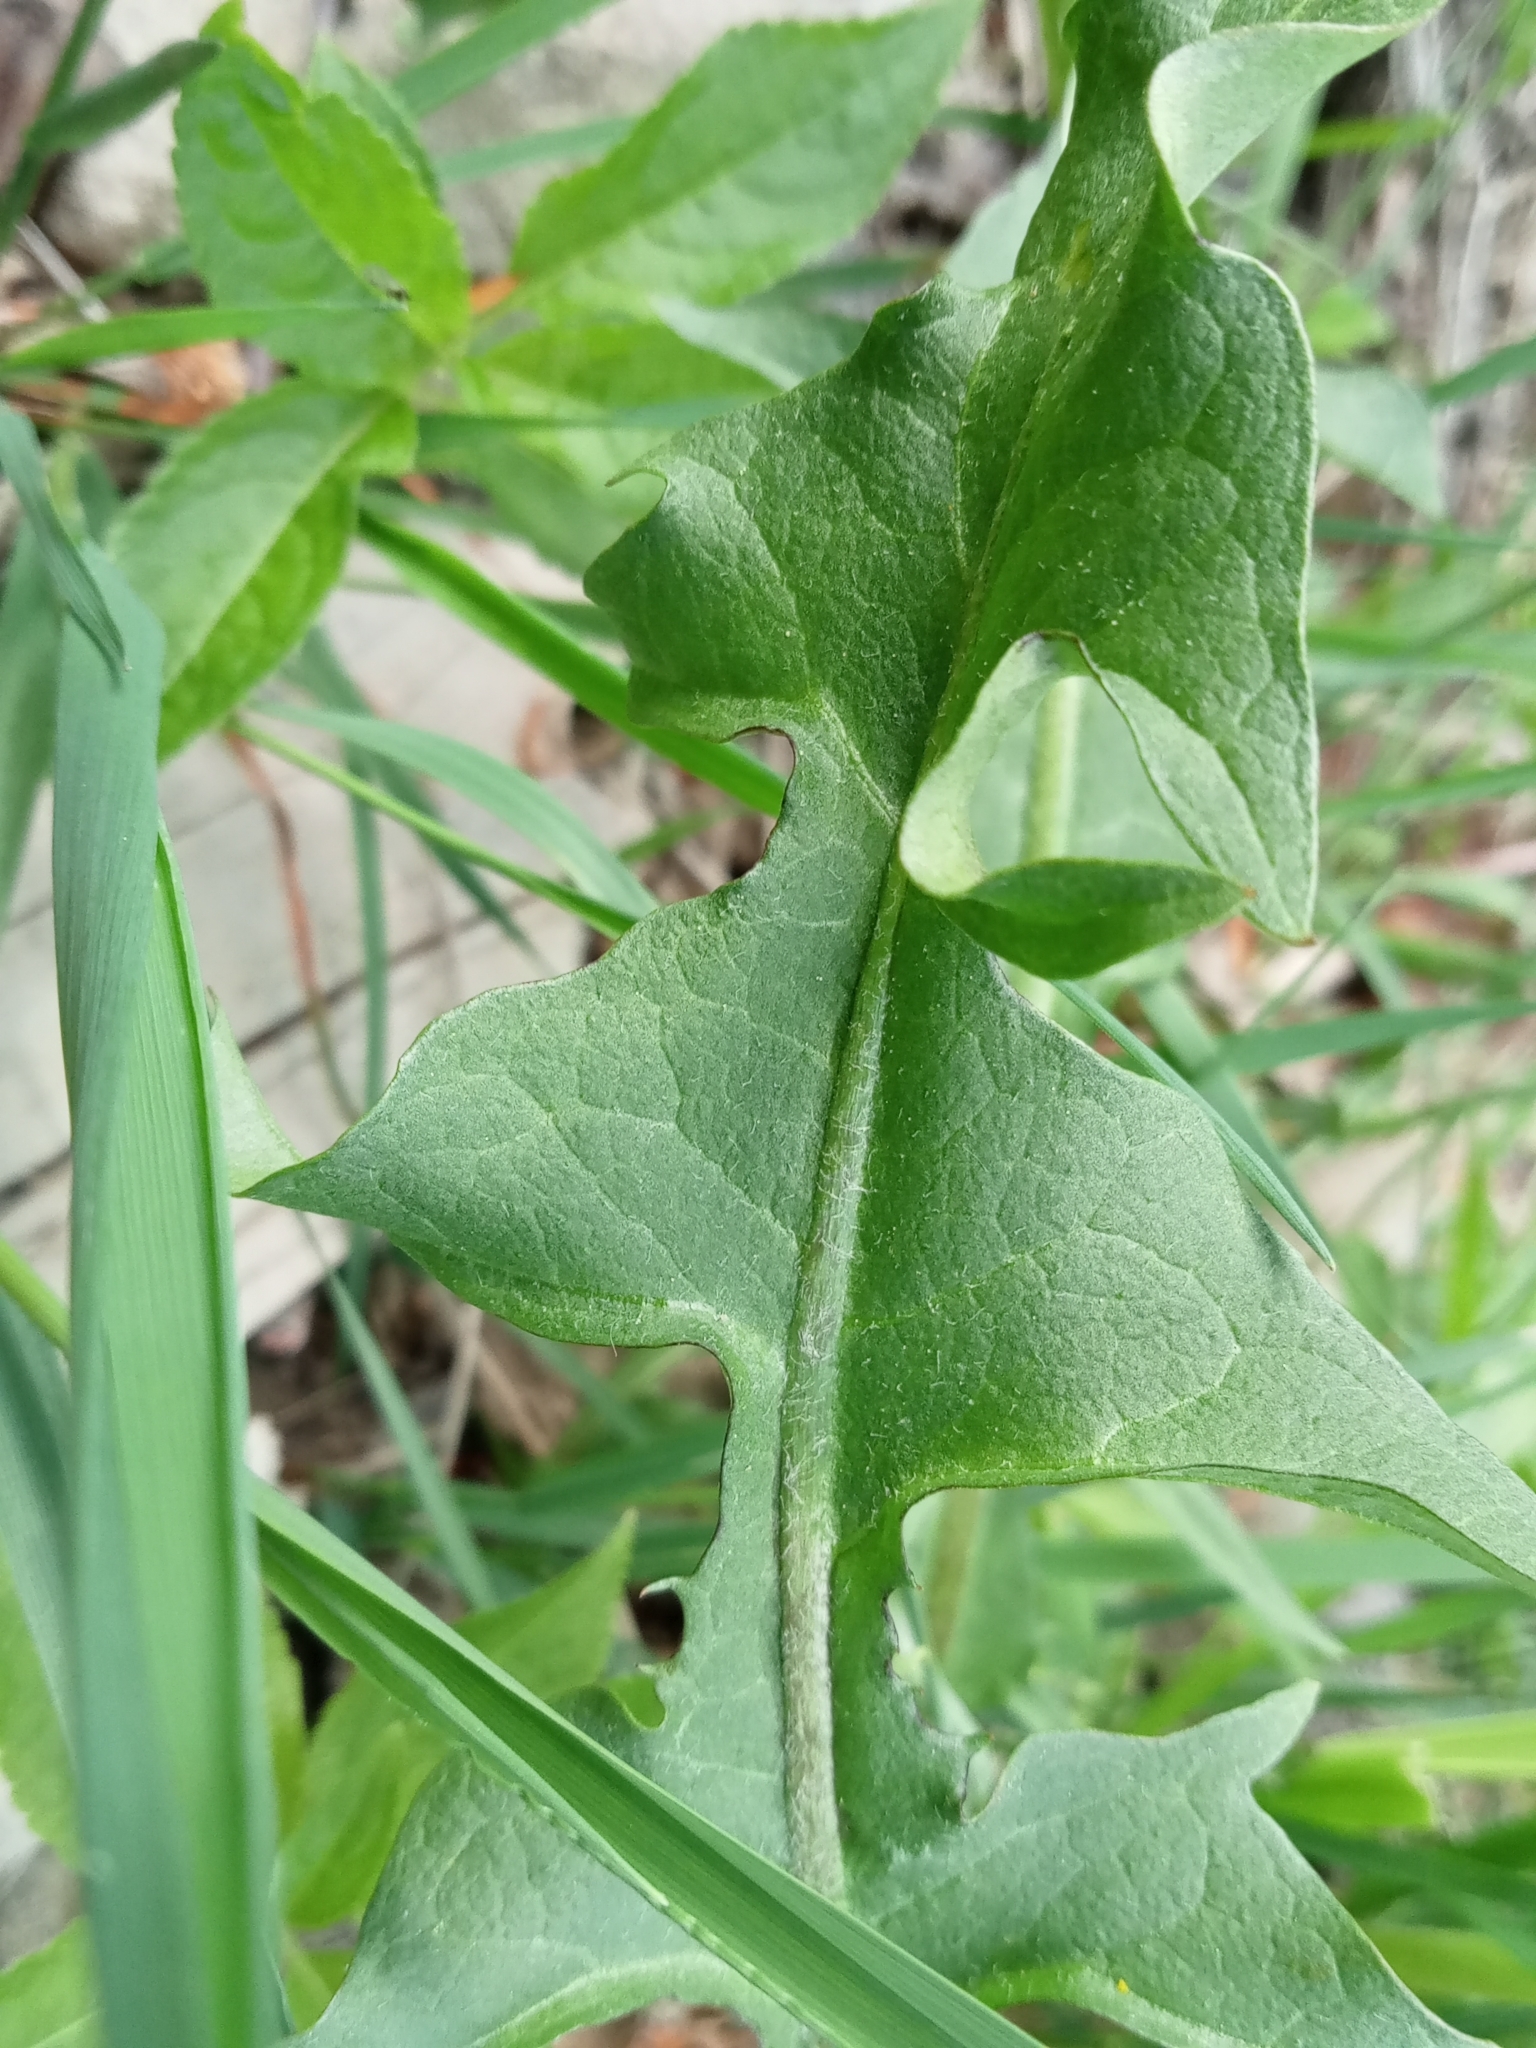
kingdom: Plantae
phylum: Tracheophyta
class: Magnoliopsida
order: Asterales
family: Asteraceae
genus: Taraxacum
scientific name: Taraxacum officinale
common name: Common dandelion
